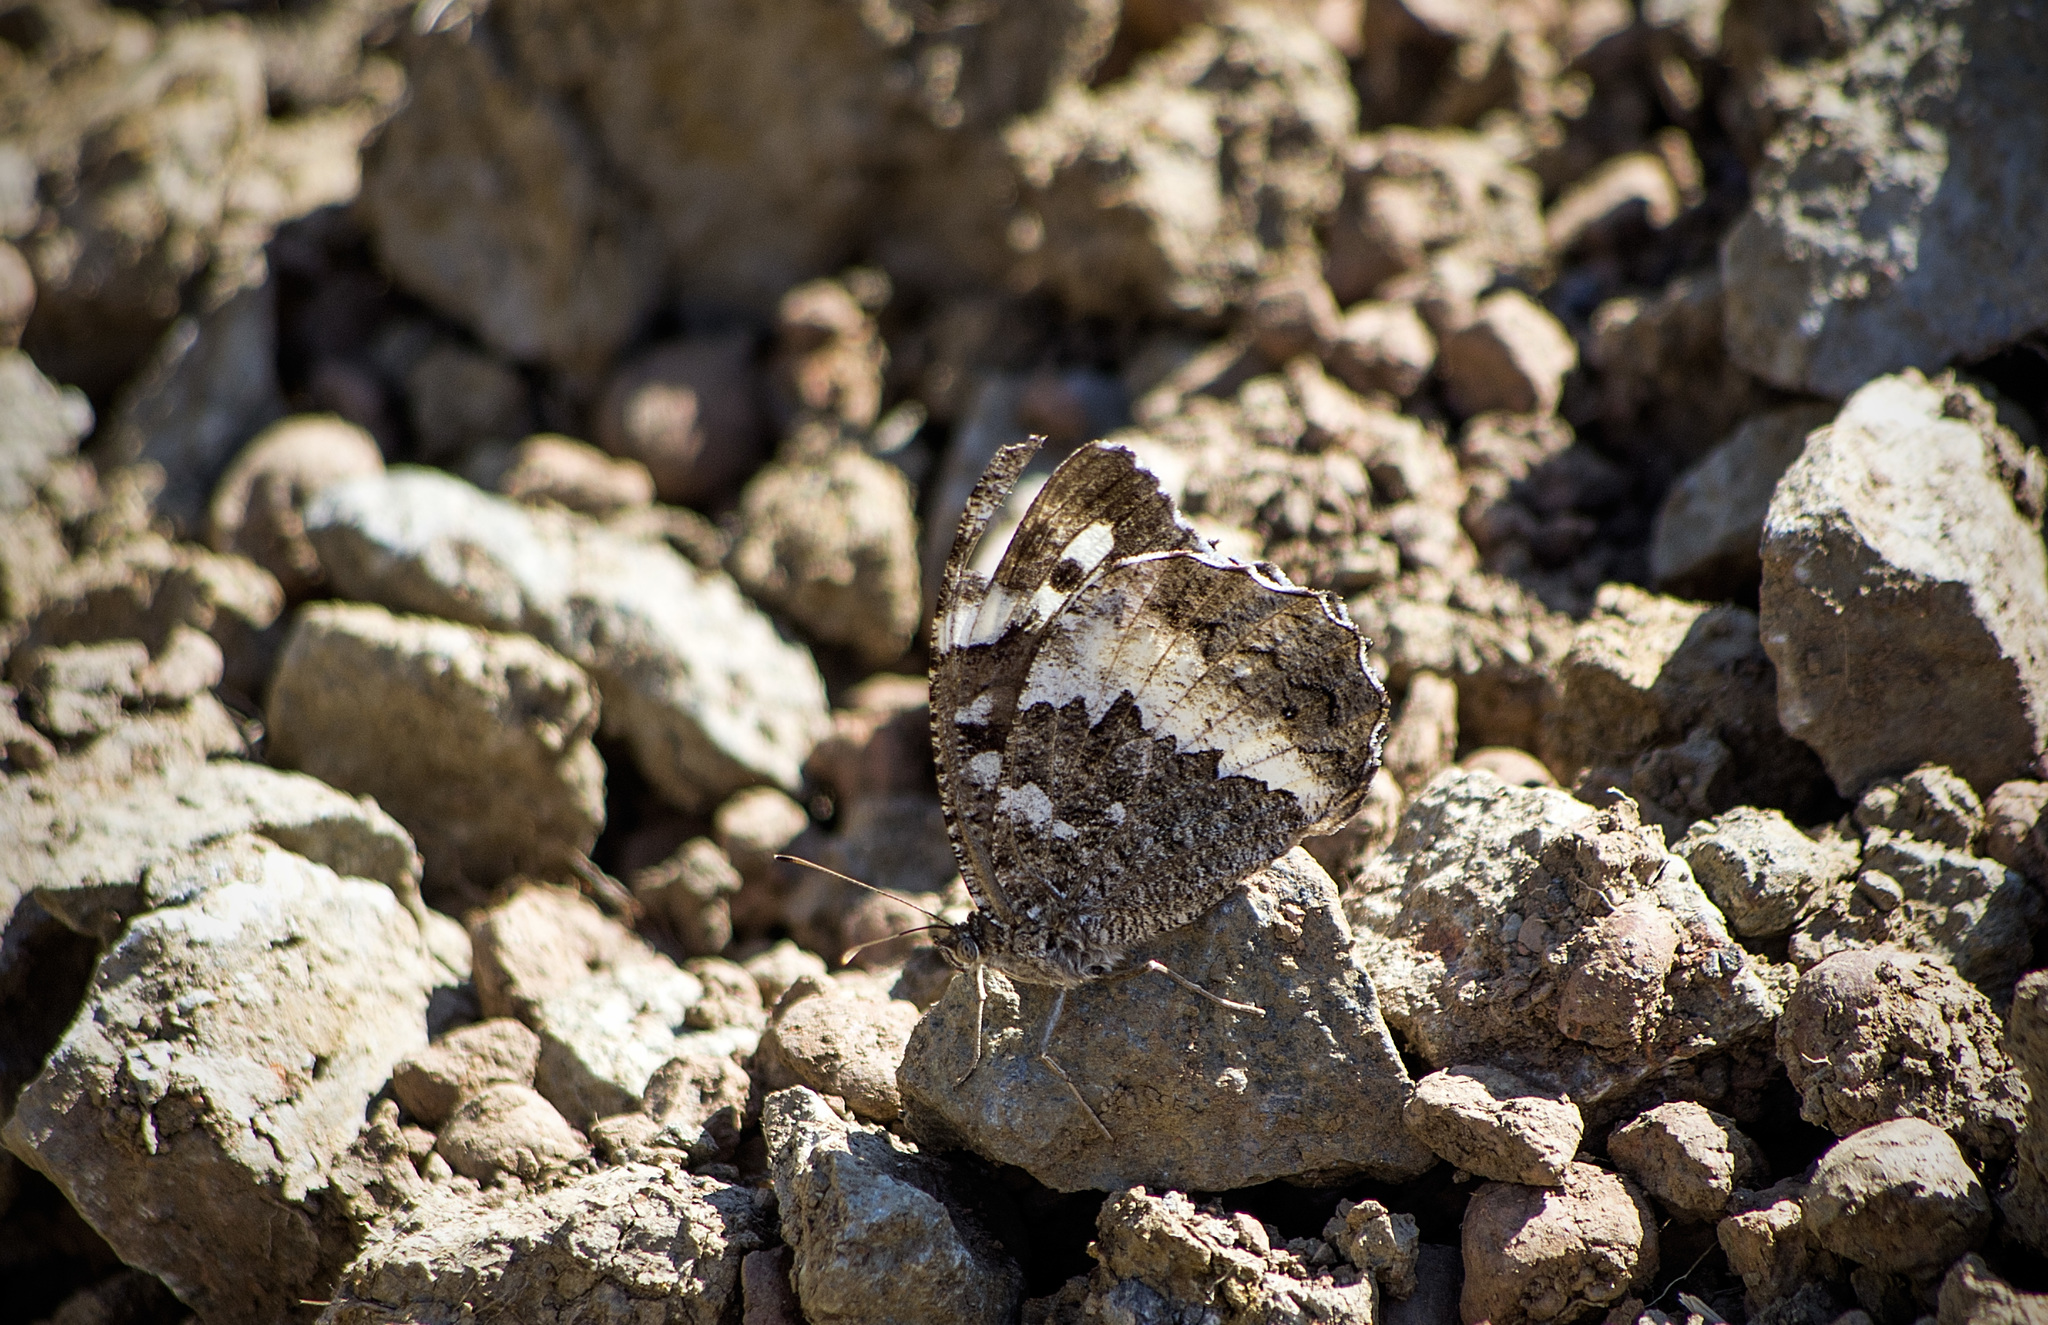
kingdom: Animalia
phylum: Arthropoda
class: Insecta
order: Lepidoptera
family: Lycaenidae
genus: Loweia
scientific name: Loweia tityrus
